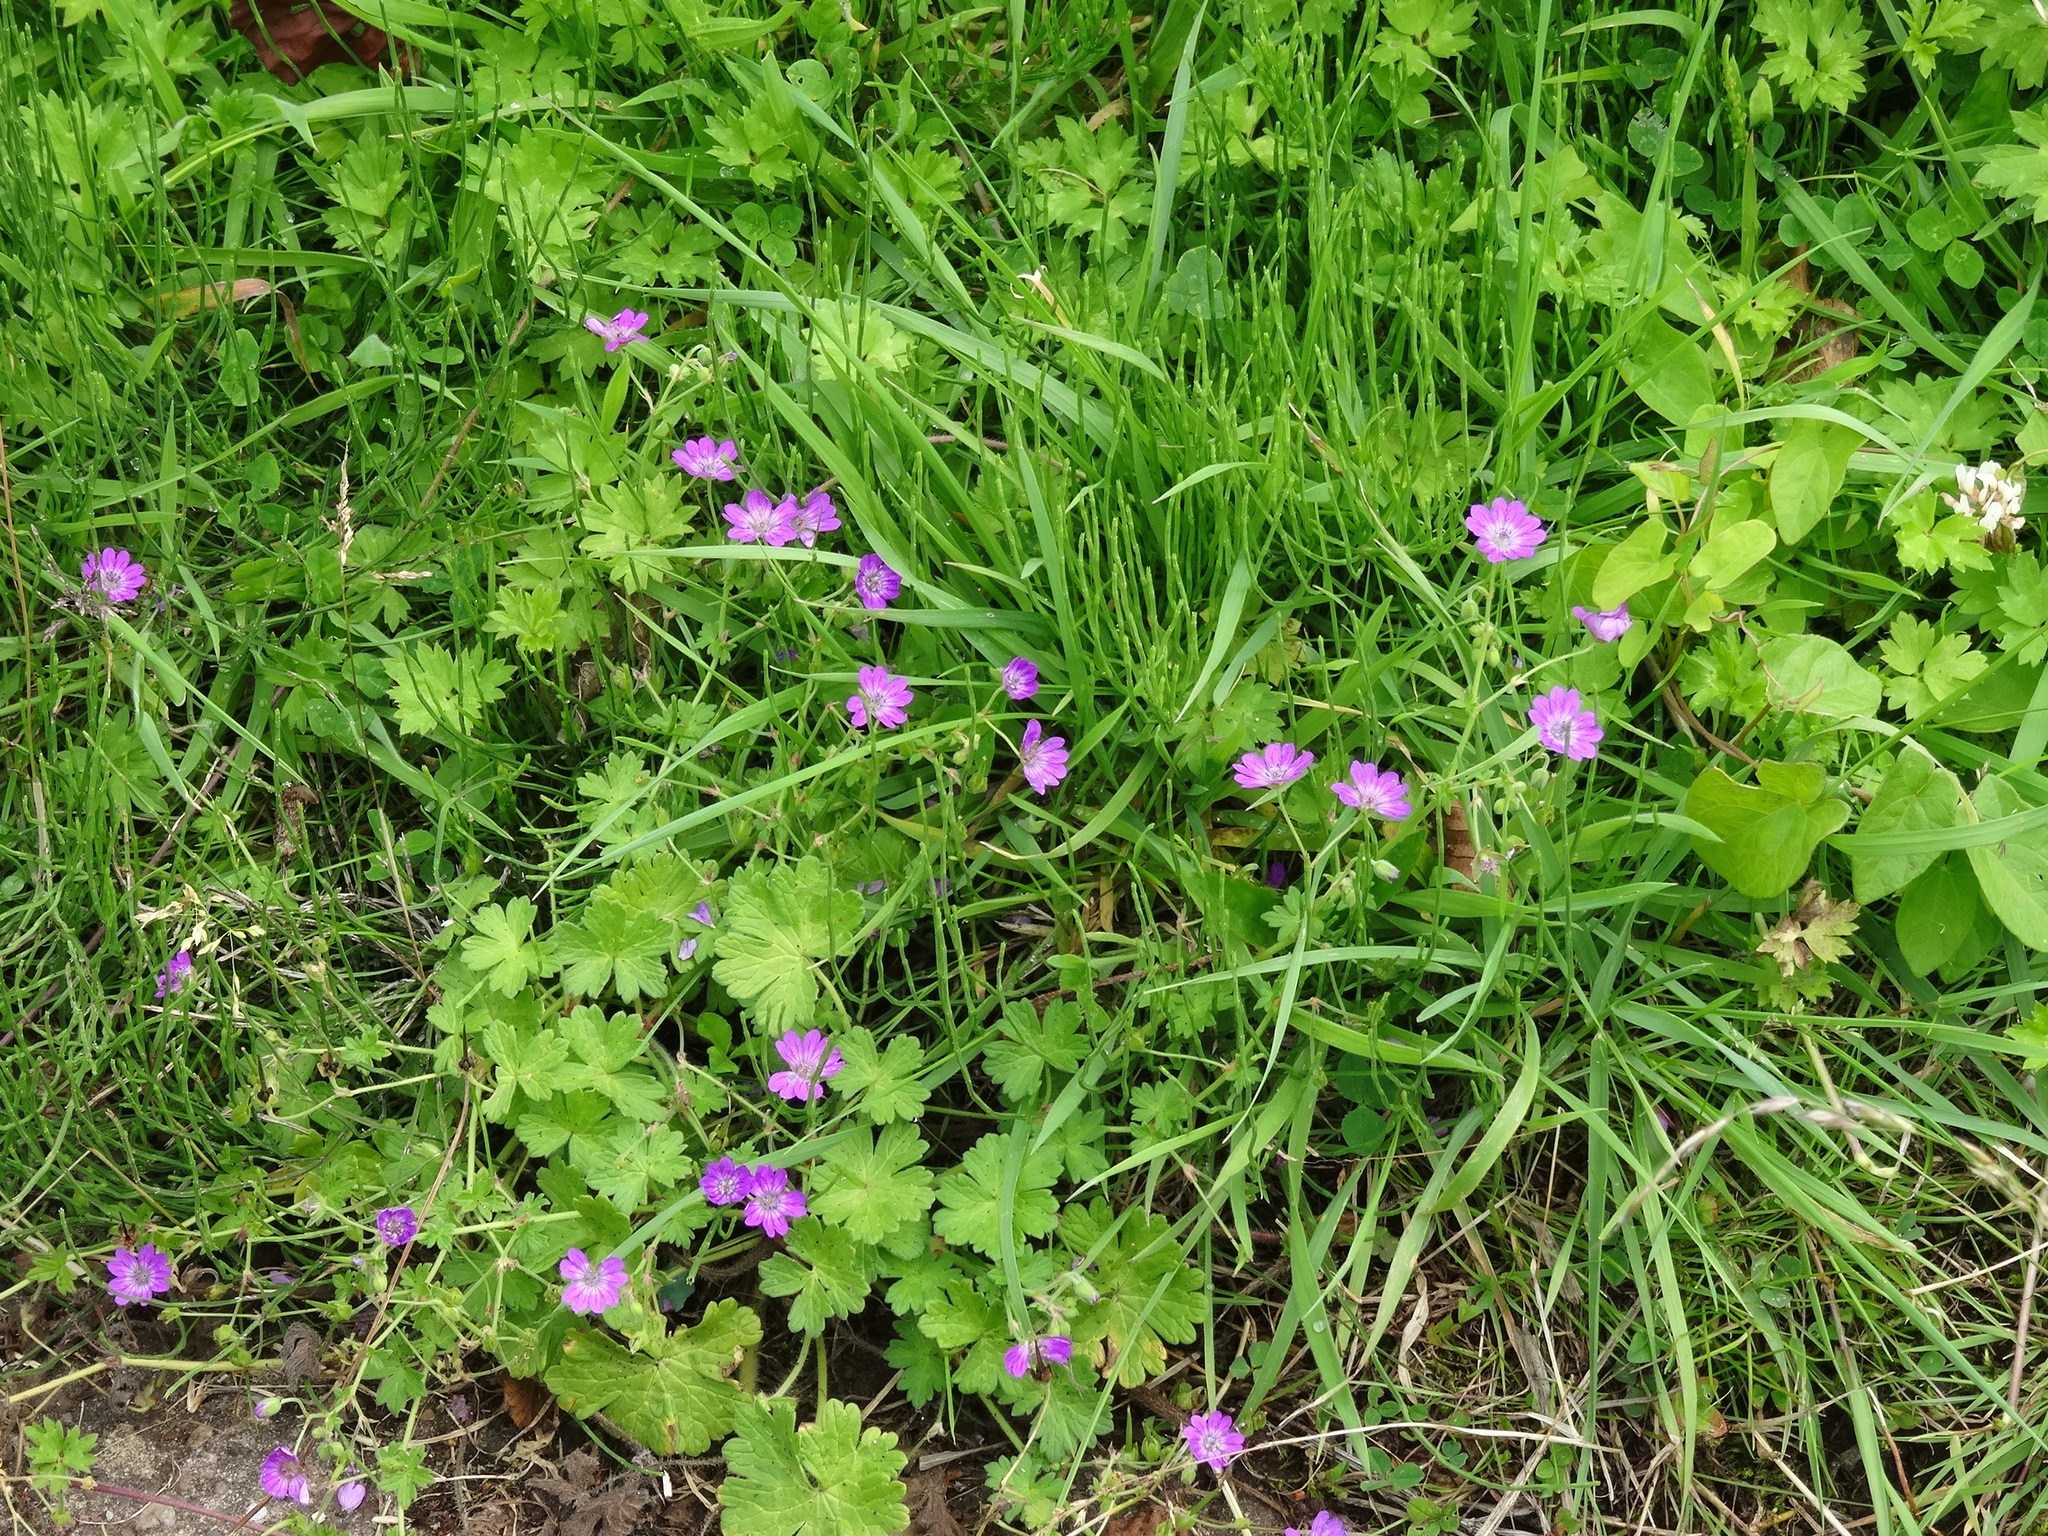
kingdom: Plantae
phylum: Tracheophyta
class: Magnoliopsida
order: Geraniales
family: Geraniaceae
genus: Geranium
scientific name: Geranium pyrenaicum
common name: Hedgerow crane's-bill
